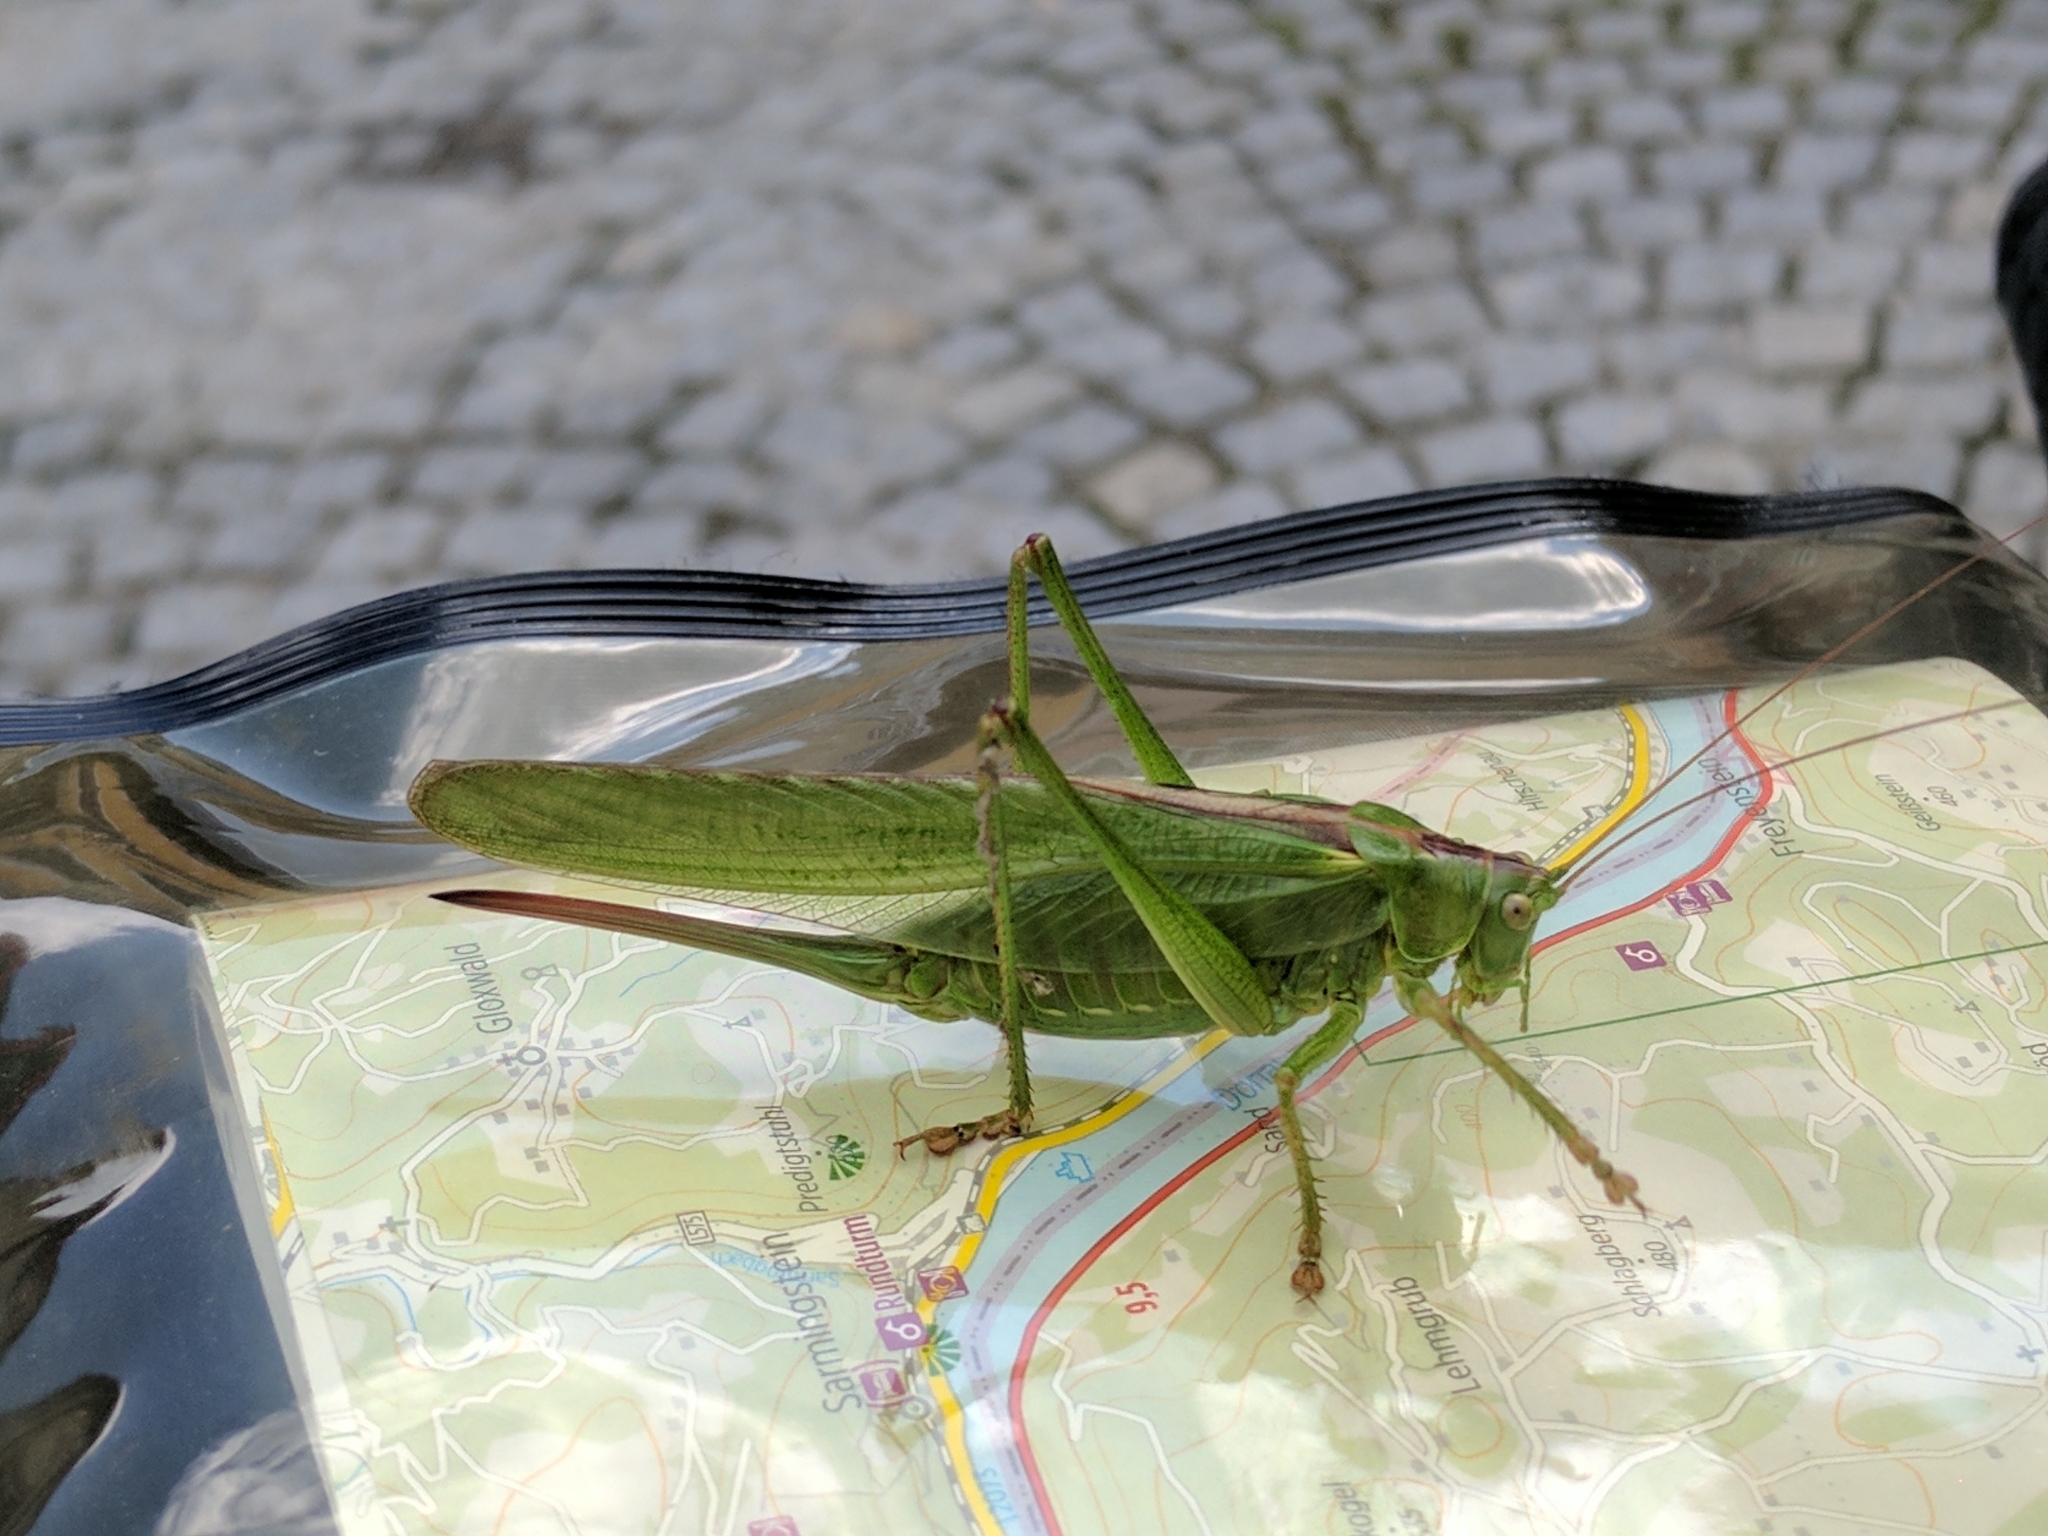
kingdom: Animalia
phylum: Arthropoda
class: Insecta
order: Orthoptera
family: Tettigoniidae
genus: Tettigonia
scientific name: Tettigonia viridissima
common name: Great green bush-cricket
